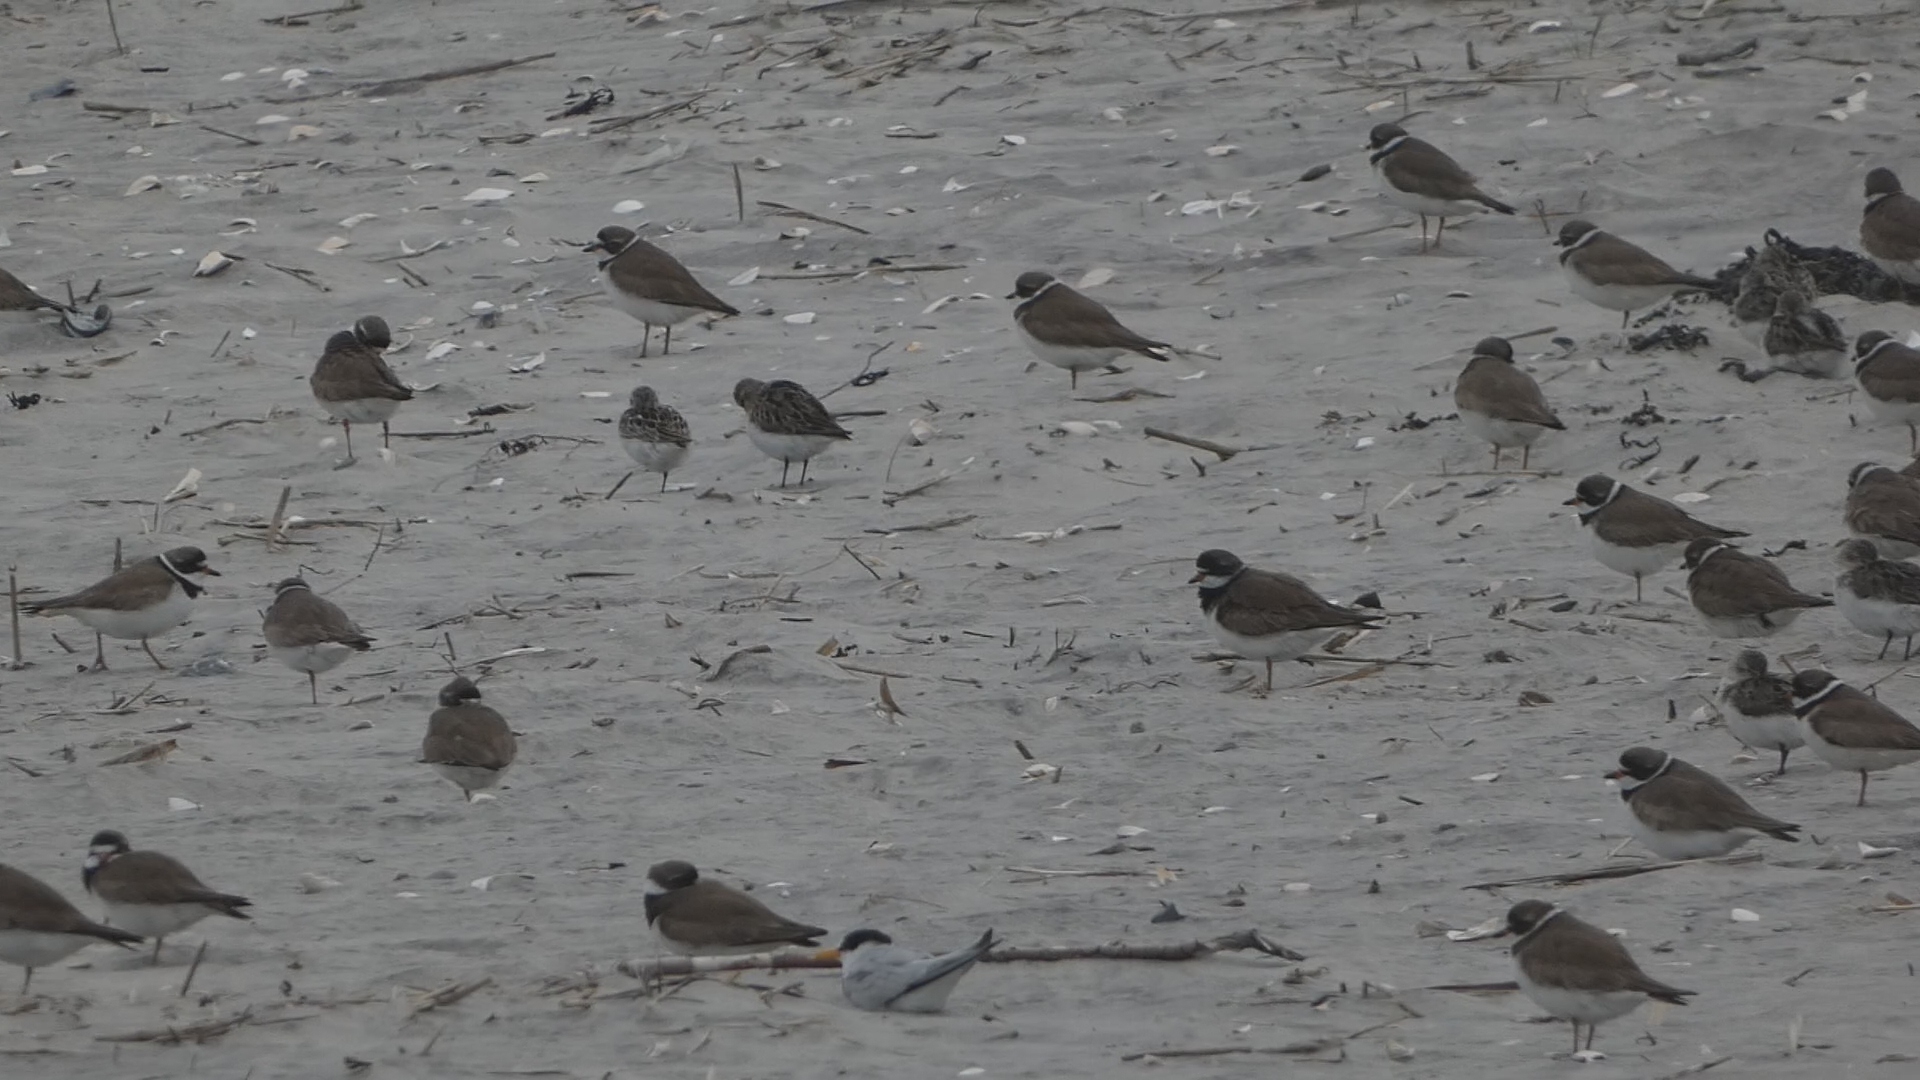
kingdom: Animalia
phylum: Chordata
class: Aves
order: Charadriiformes
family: Charadriidae
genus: Charadrius
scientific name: Charadrius semipalmatus
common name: Semipalmated plover
